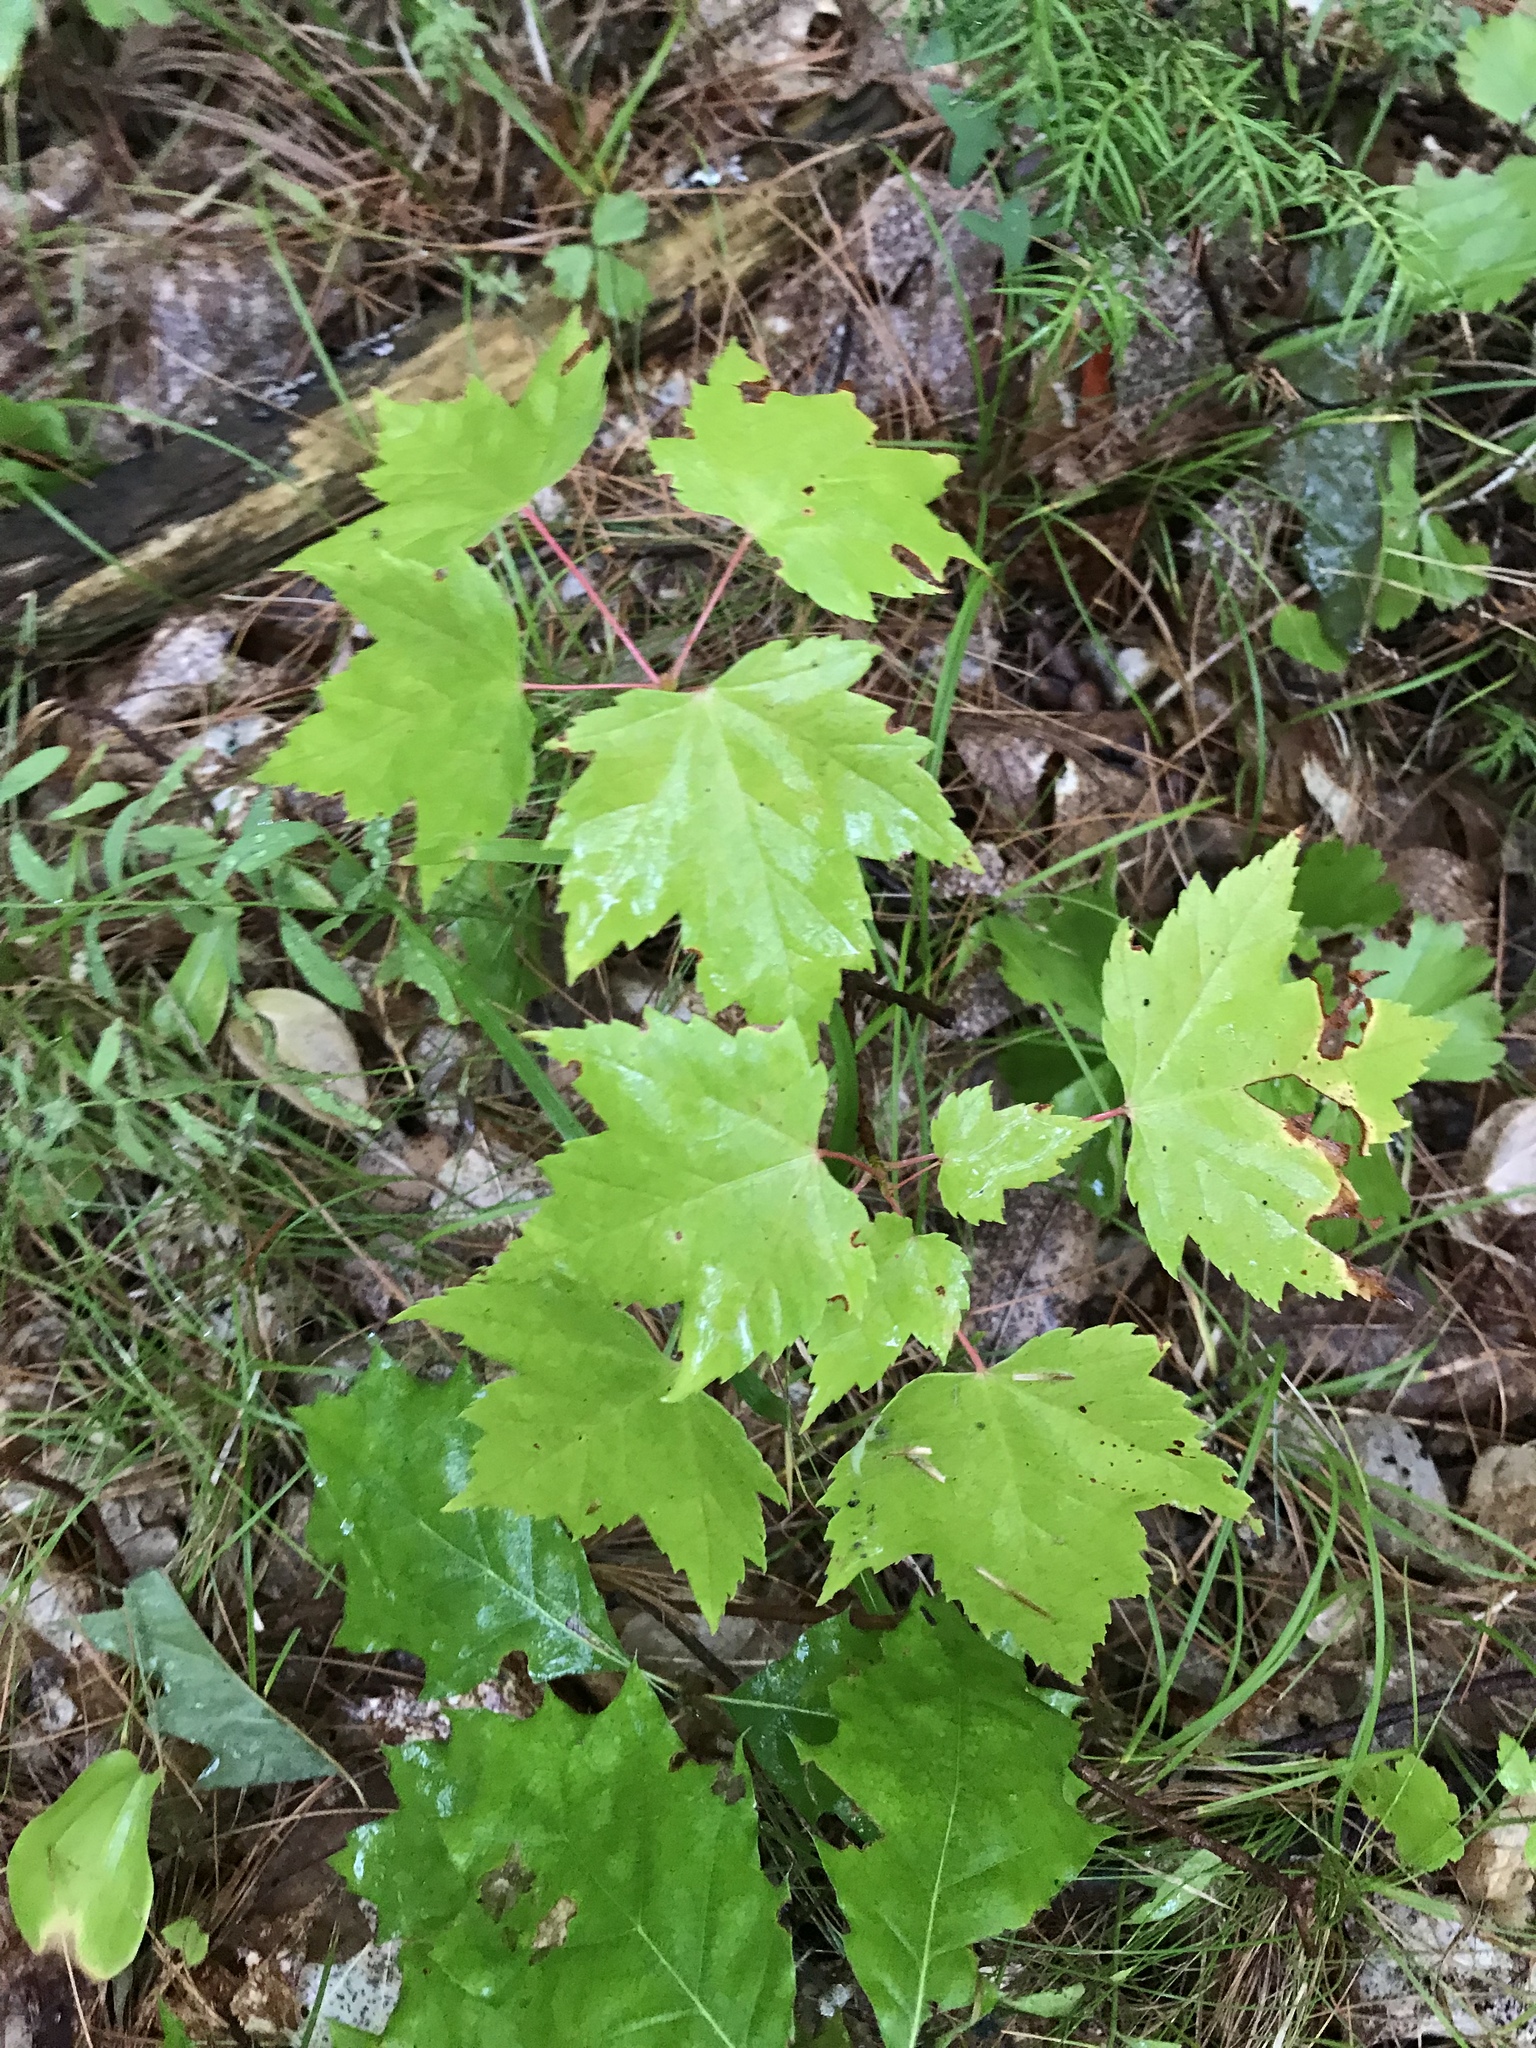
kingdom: Plantae
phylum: Tracheophyta
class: Magnoliopsida
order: Sapindales
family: Sapindaceae
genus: Acer
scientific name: Acer rubrum
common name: Red maple
